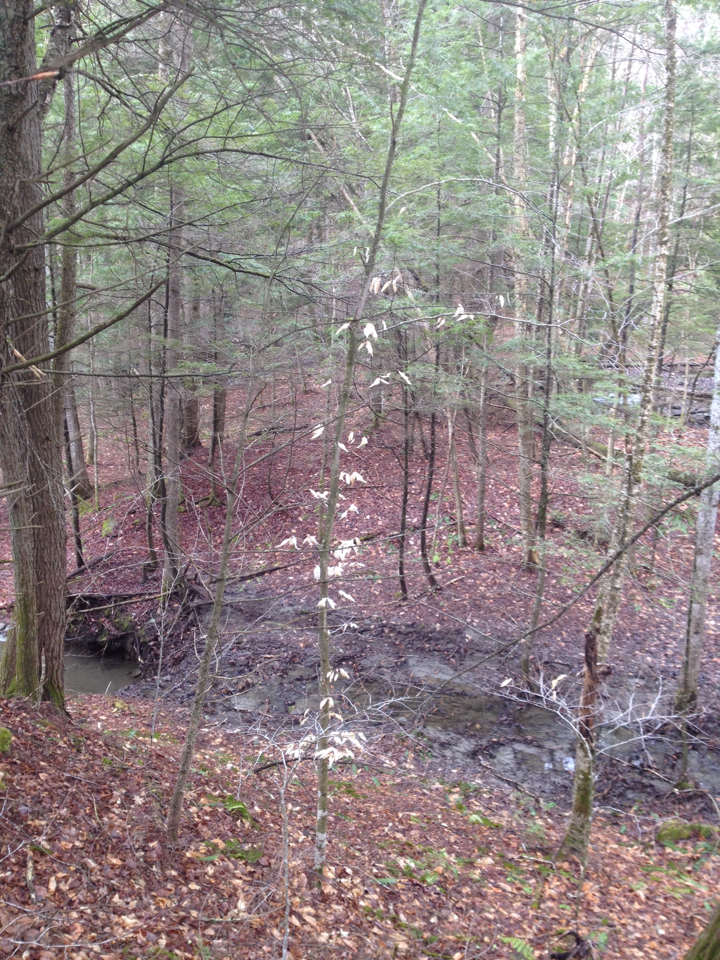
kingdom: Plantae
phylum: Tracheophyta
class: Magnoliopsida
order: Fagales
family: Fagaceae
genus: Fagus
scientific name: Fagus grandifolia
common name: American beech
